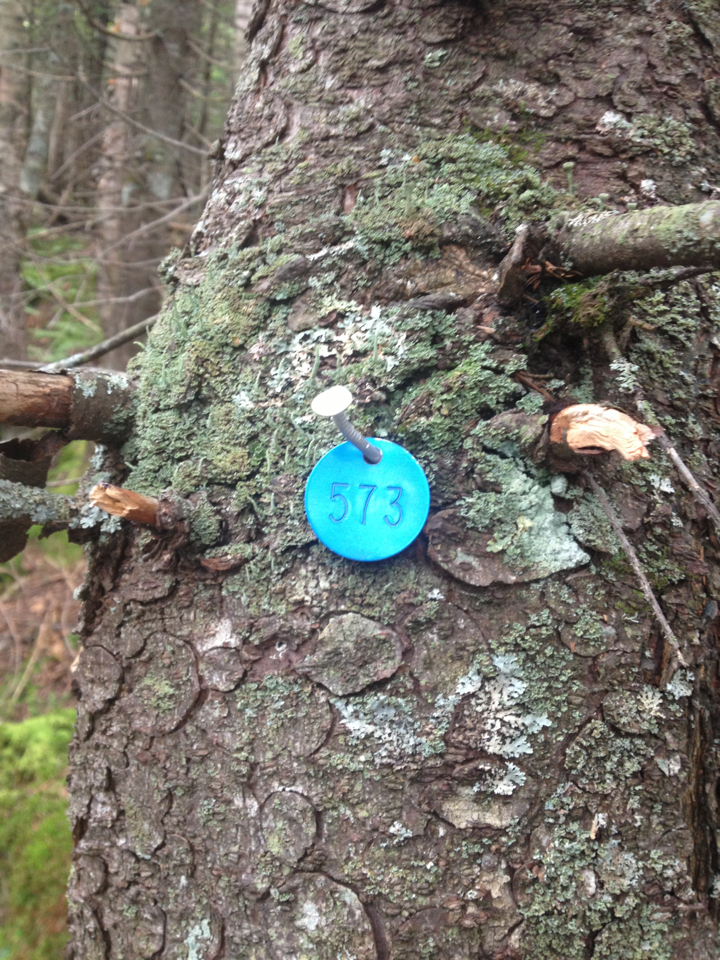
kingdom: Plantae
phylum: Tracheophyta
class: Pinopsida
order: Pinales
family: Pinaceae
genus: Picea
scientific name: Picea rubens
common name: Red spruce
